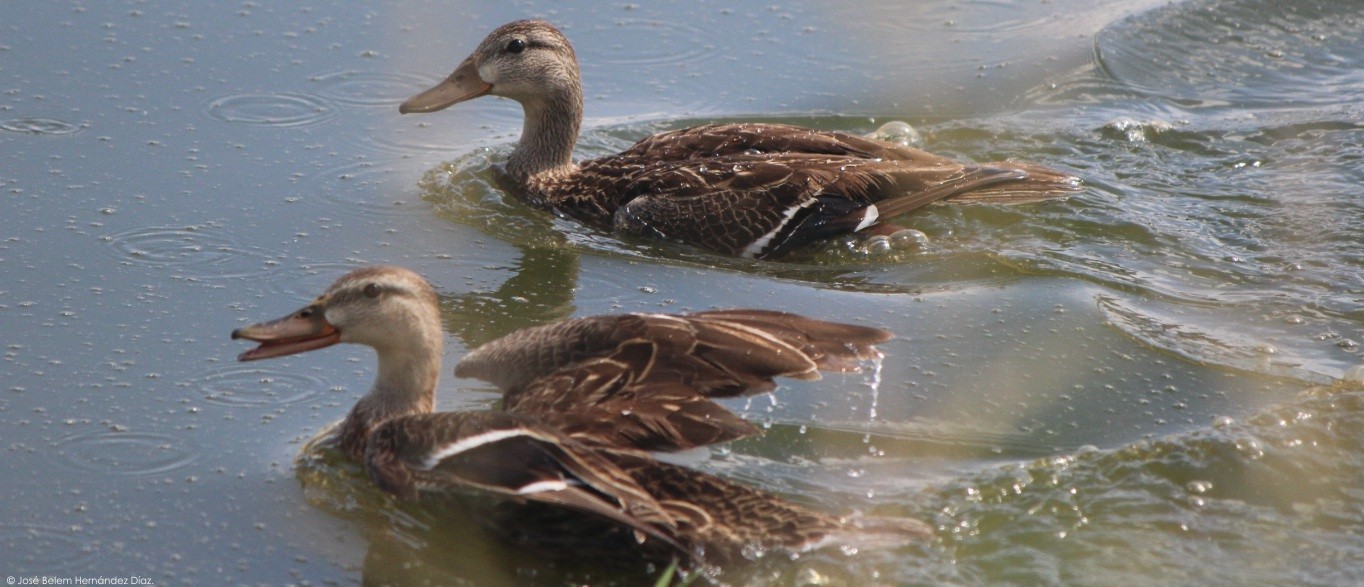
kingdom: Animalia
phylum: Chordata
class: Aves
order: Anseriformes
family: Anatidae
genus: Anas
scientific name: Anas diazi
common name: Mexican duck
